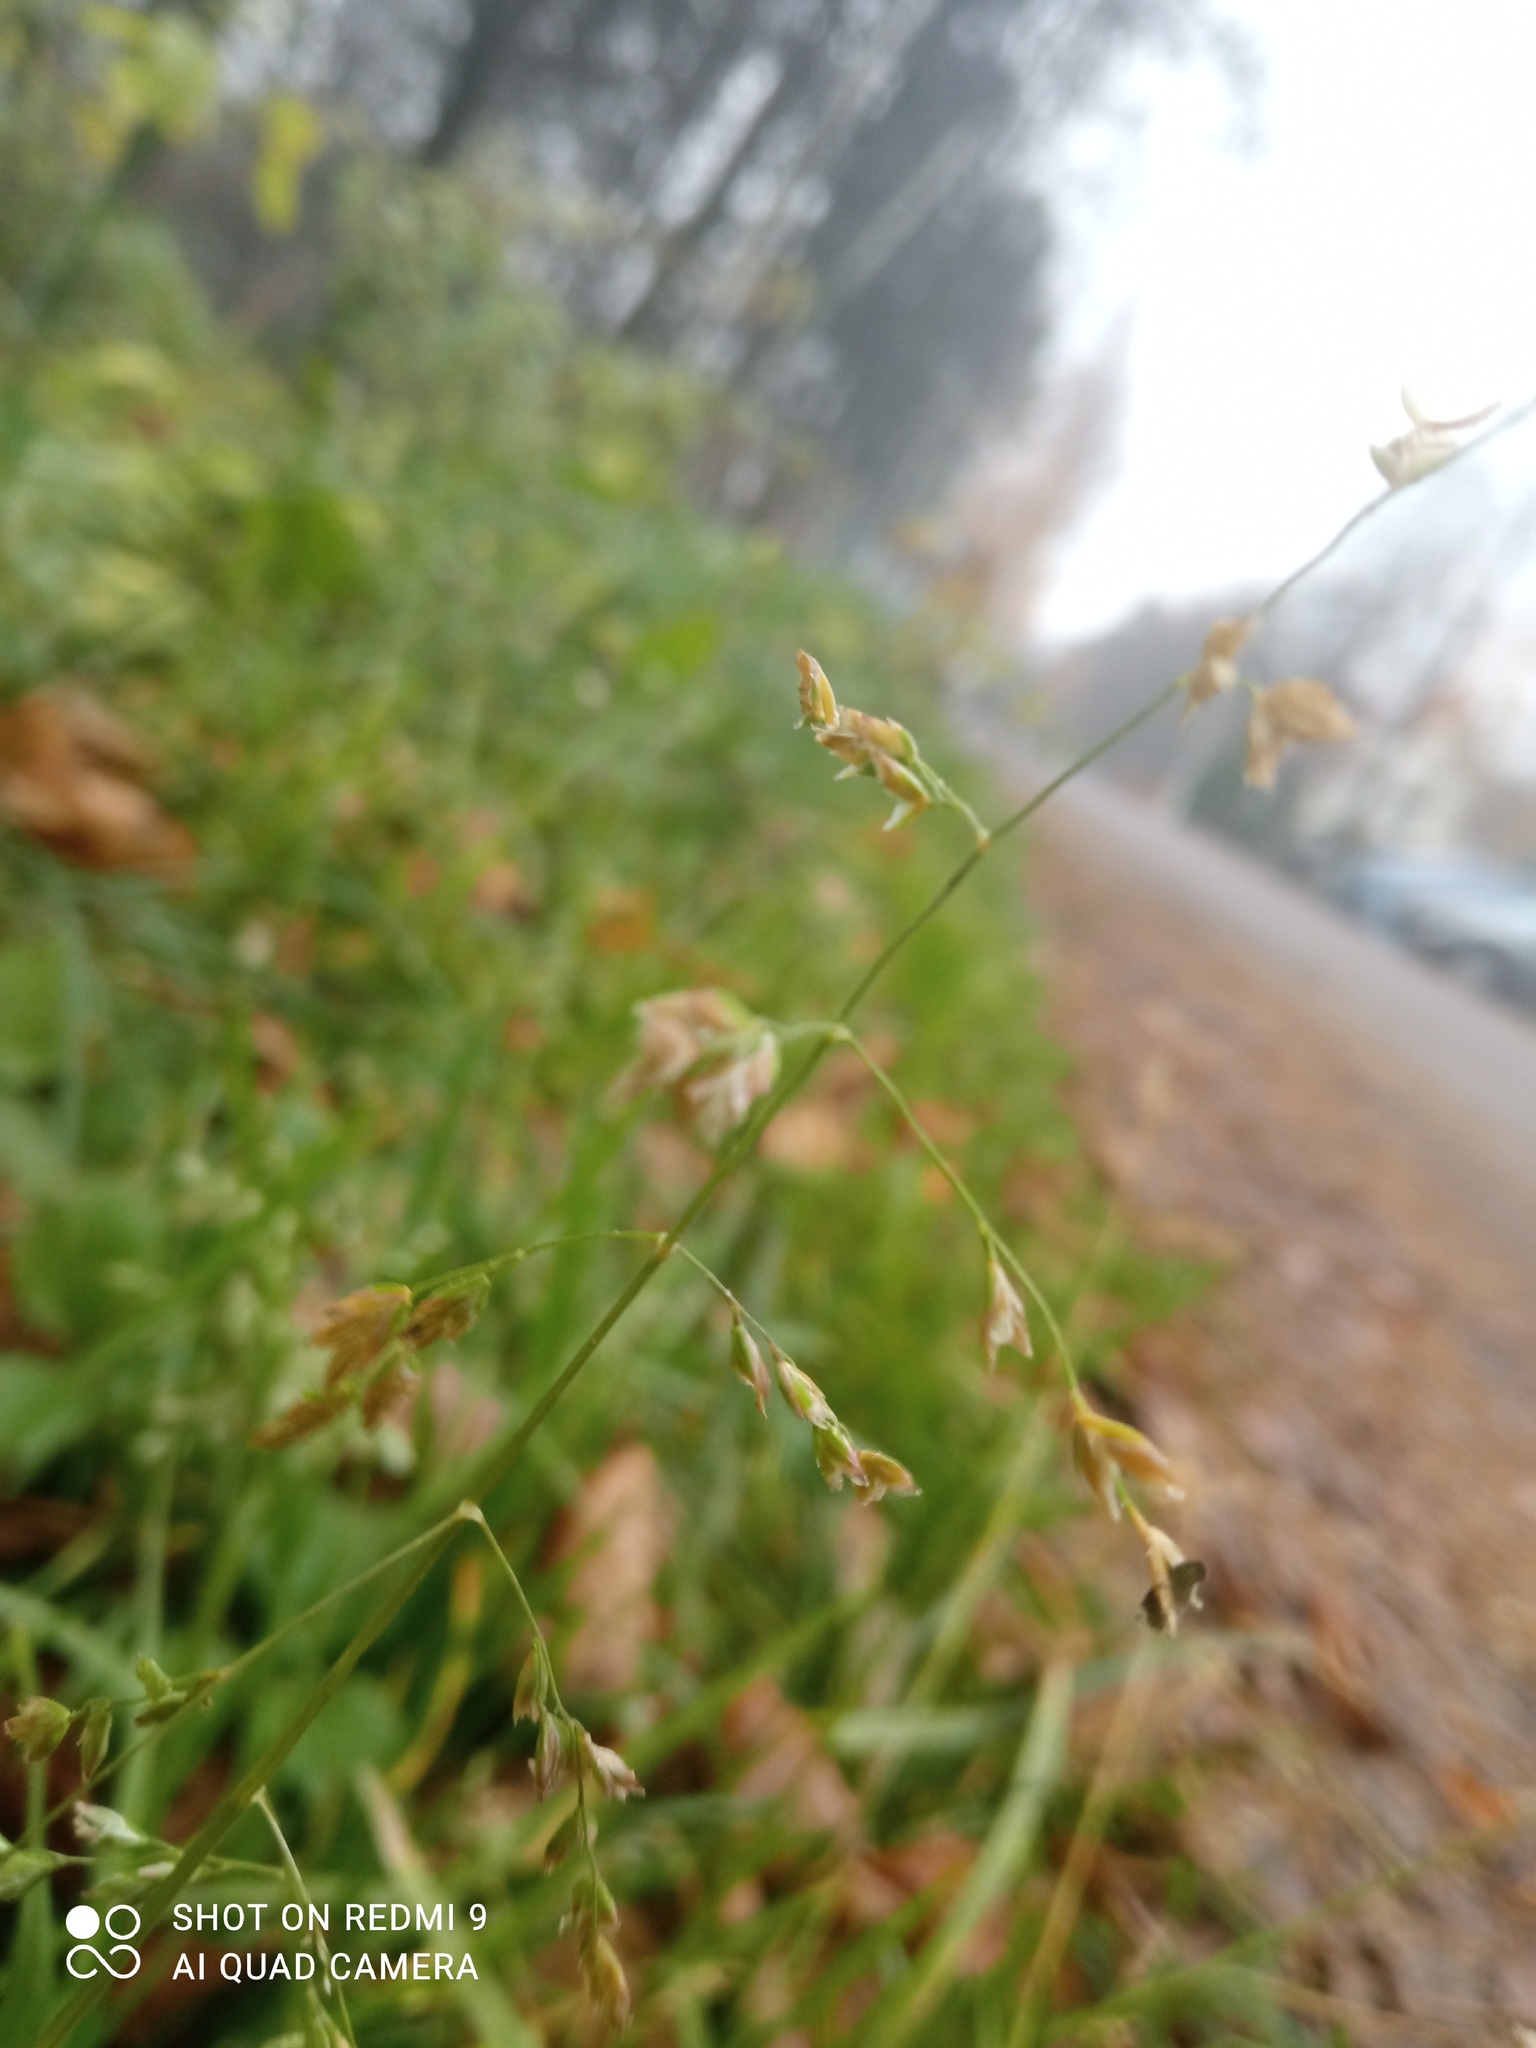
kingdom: Plantae
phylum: Tracheophyta
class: Liliopsida
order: Poales
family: Poaceae
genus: Poa
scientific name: Poa annua
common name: Annual bluegrass
